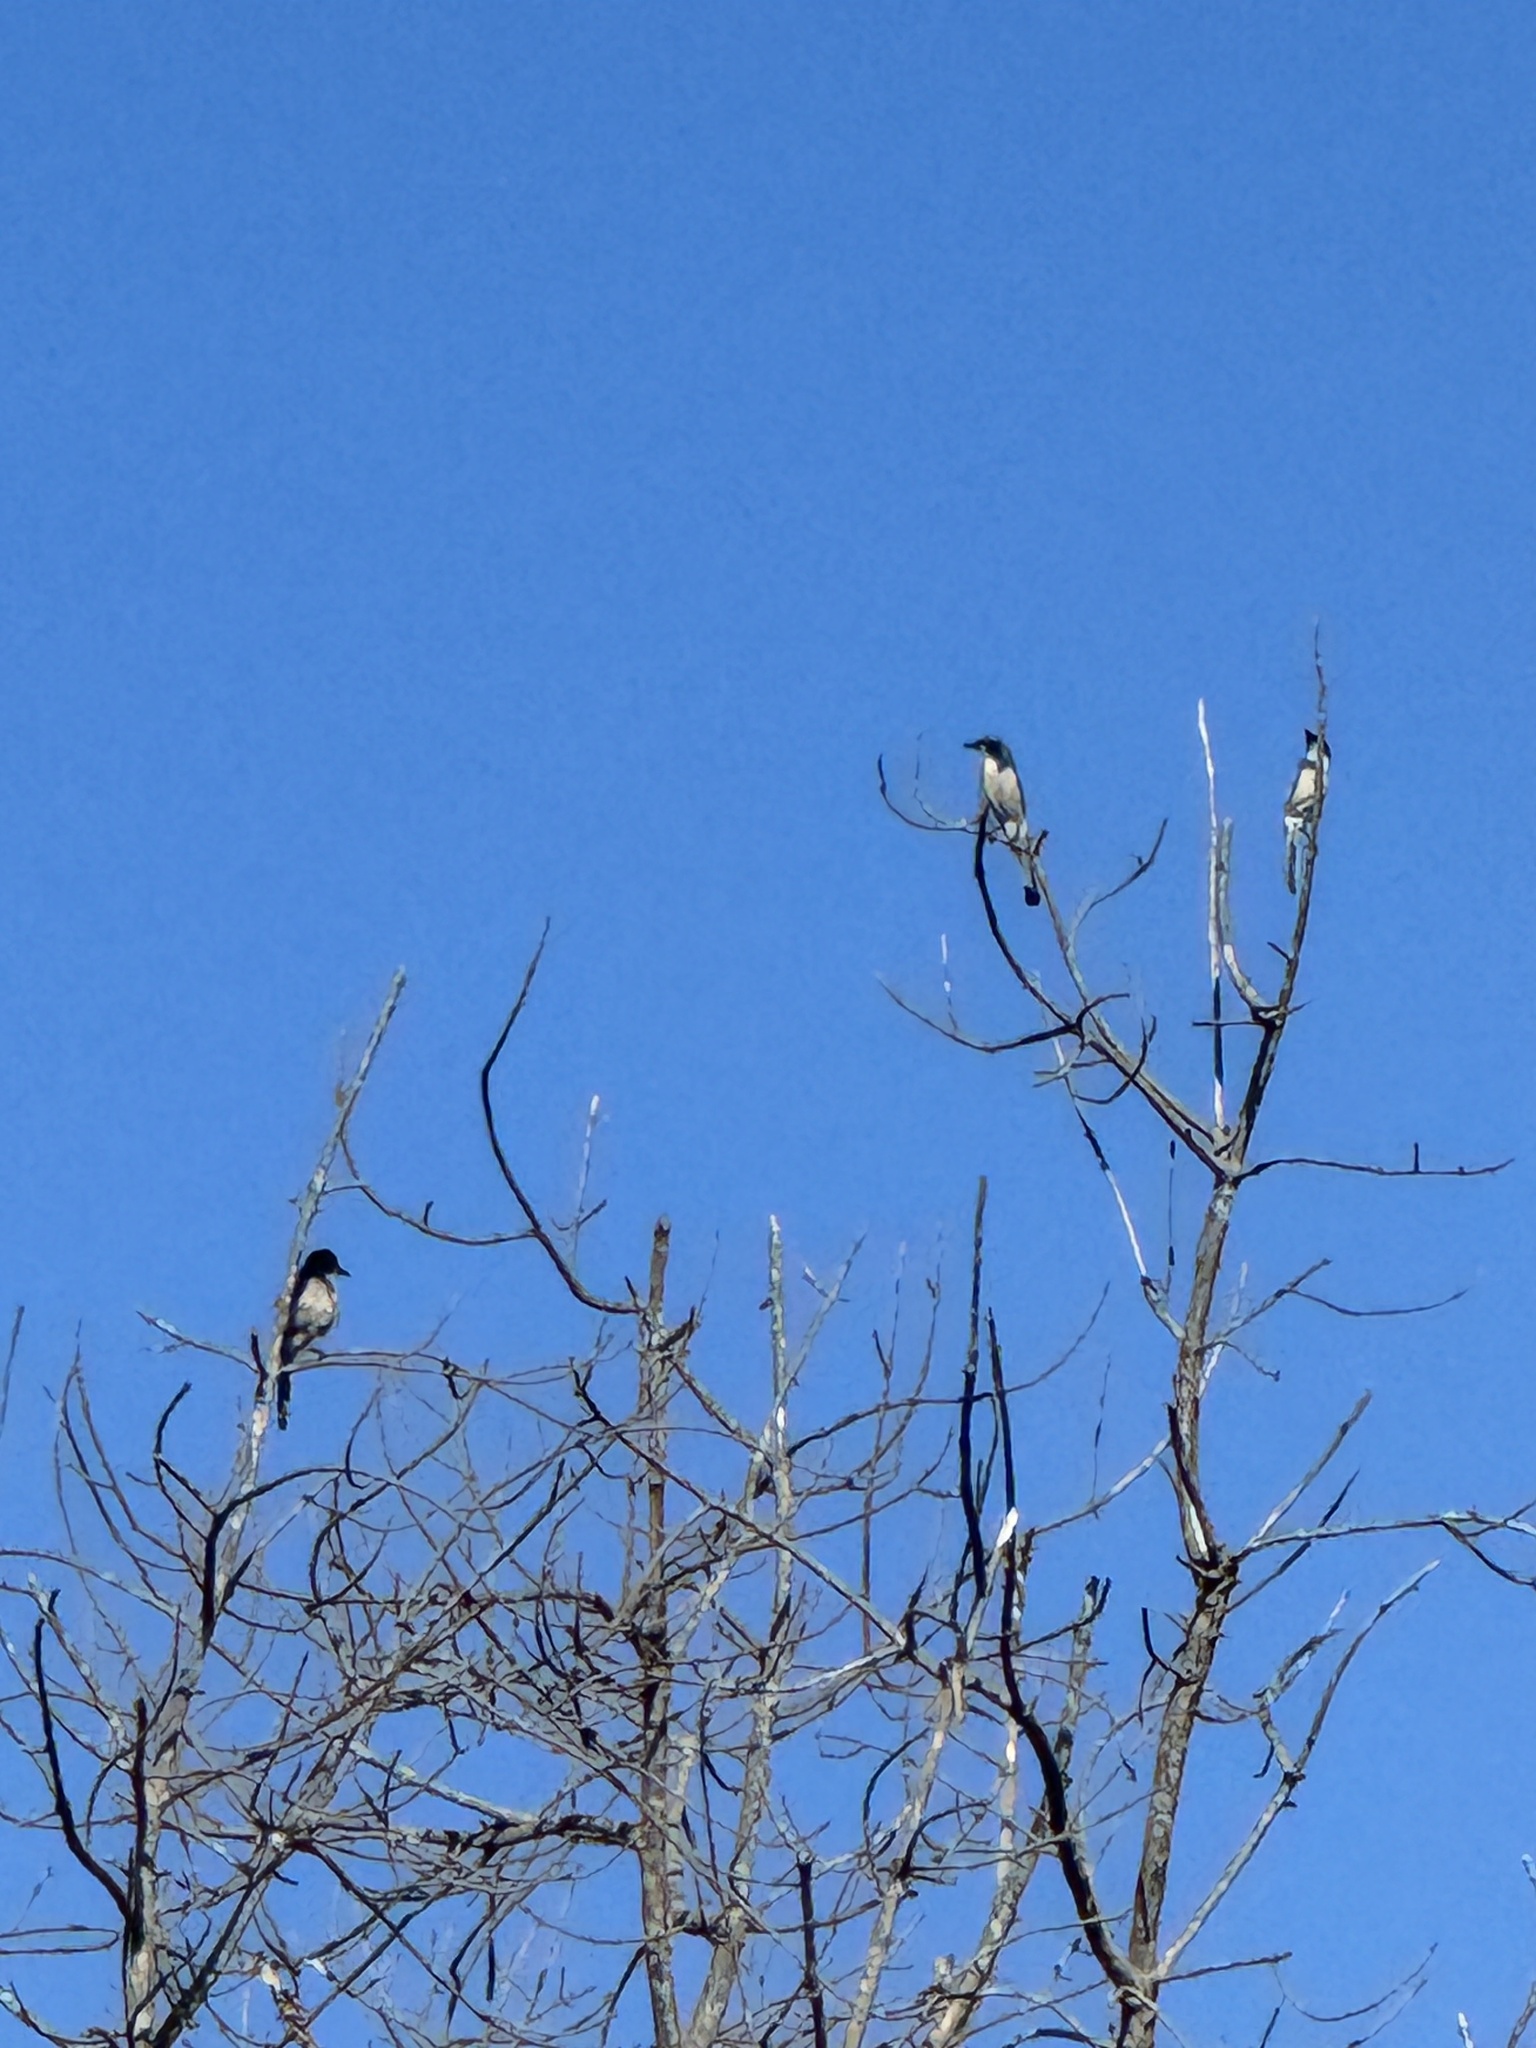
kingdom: Animalia
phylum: Chordata
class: Aves
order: Passeriformes
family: Corvidae
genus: Aphelocoma
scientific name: Aphelocoma californica
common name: California scrub-jay
